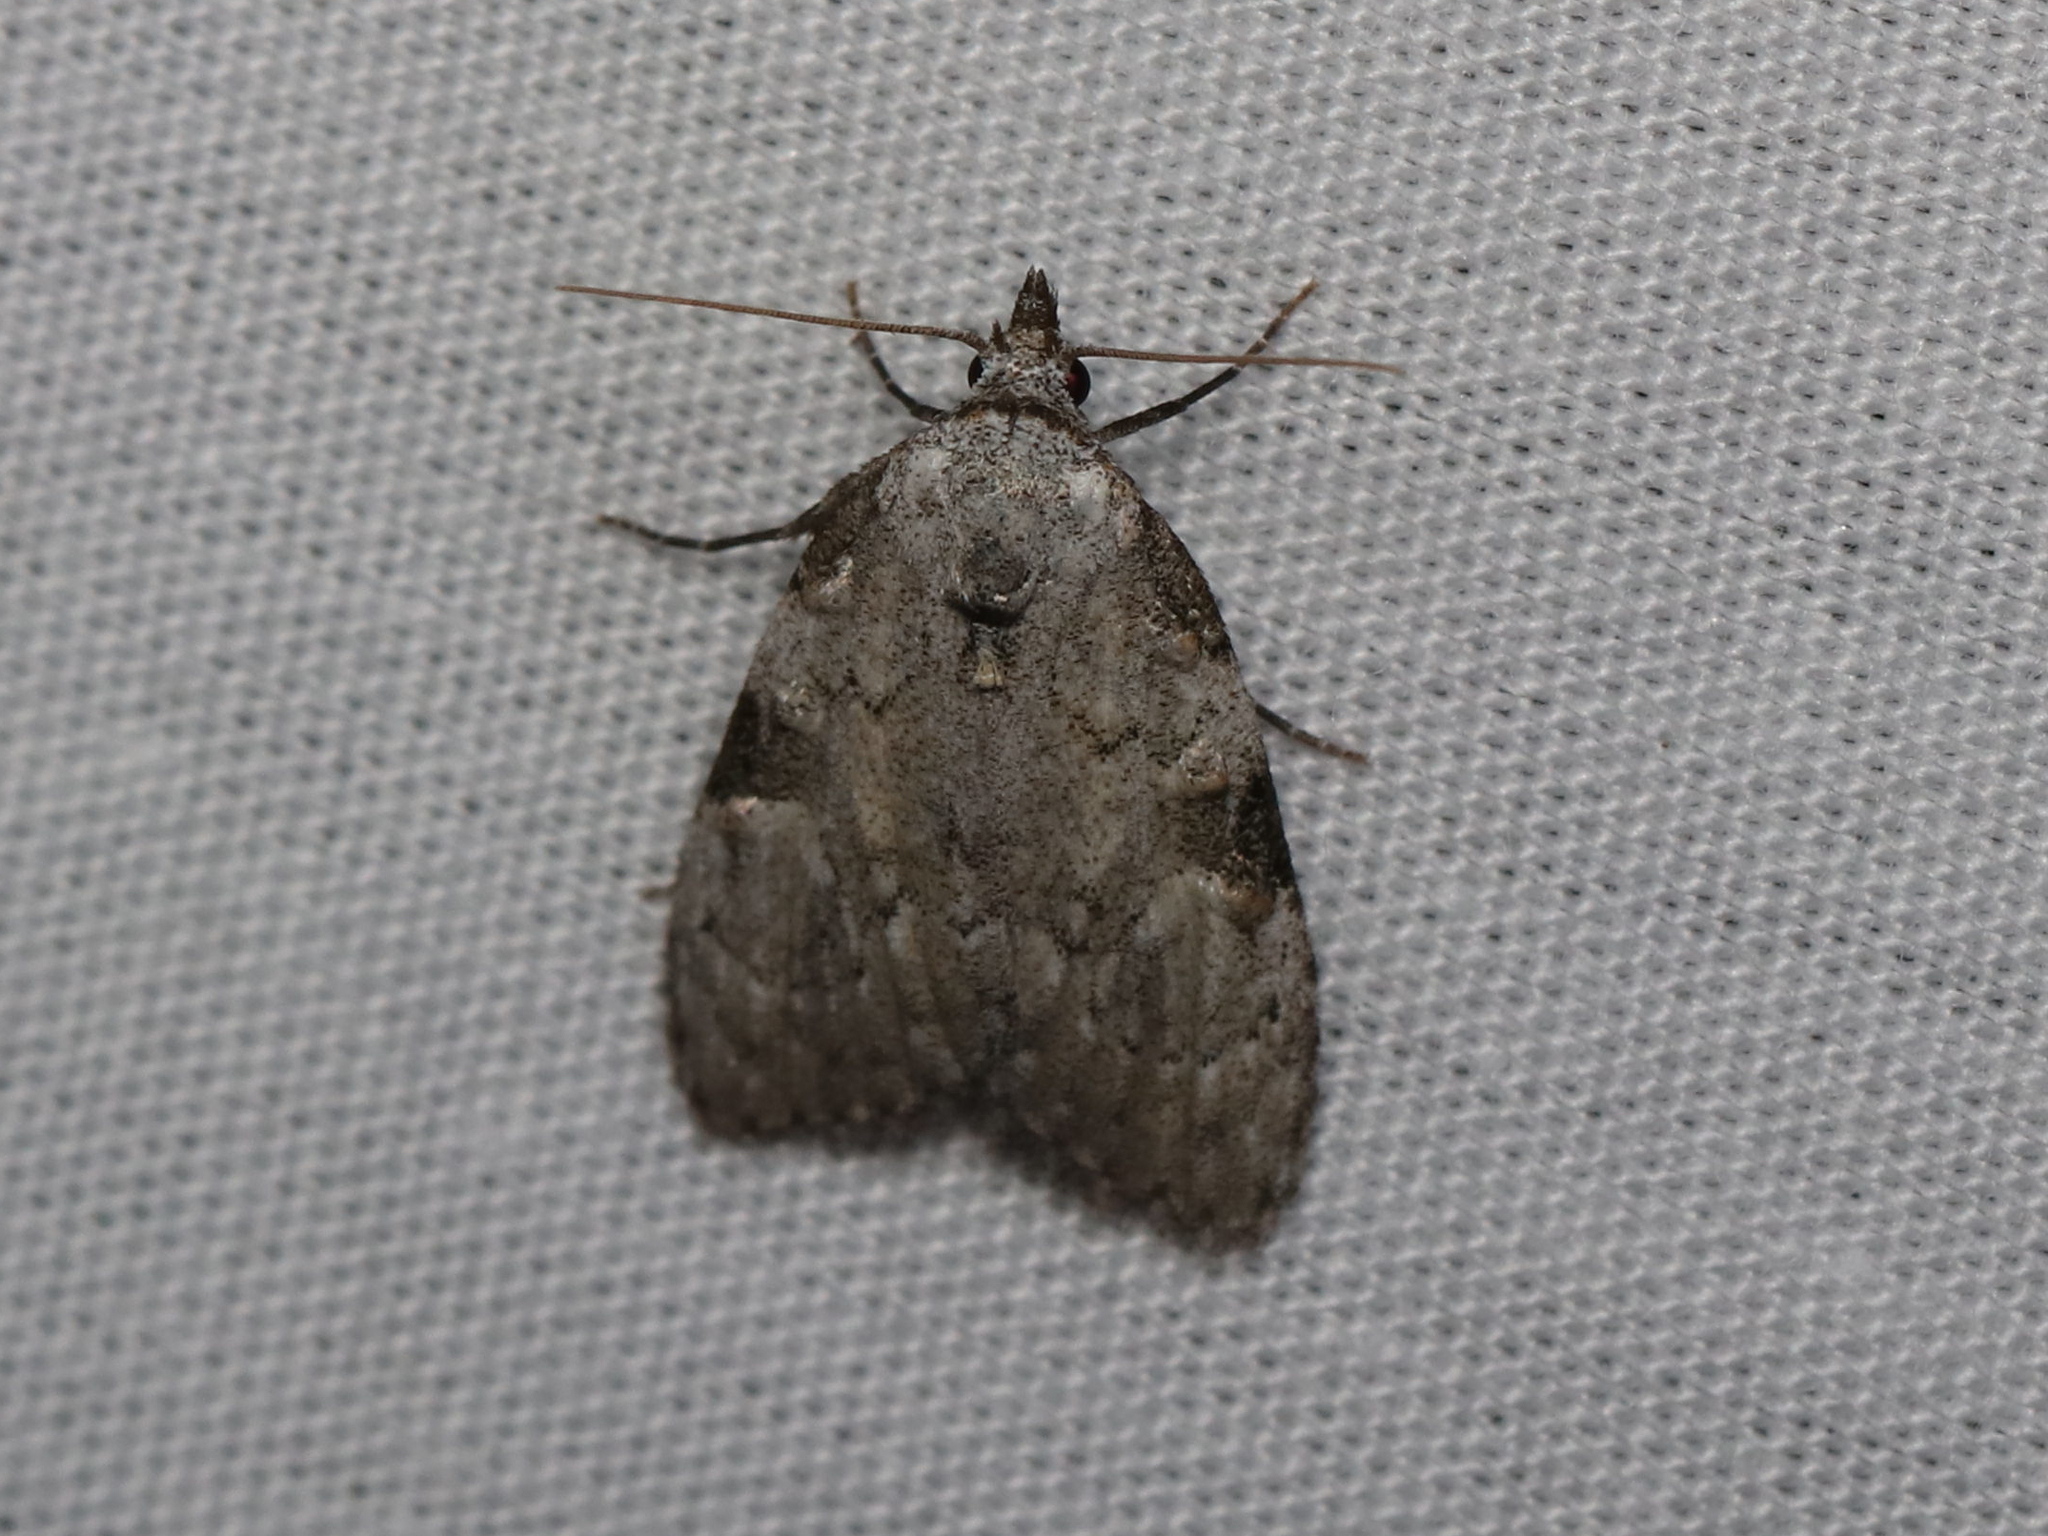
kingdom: Animalia
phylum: Arthropoda
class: Insecta
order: Lepidoptera
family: Nolidae
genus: Meganola
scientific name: Meganola minuscula
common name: Confused meganola moth
